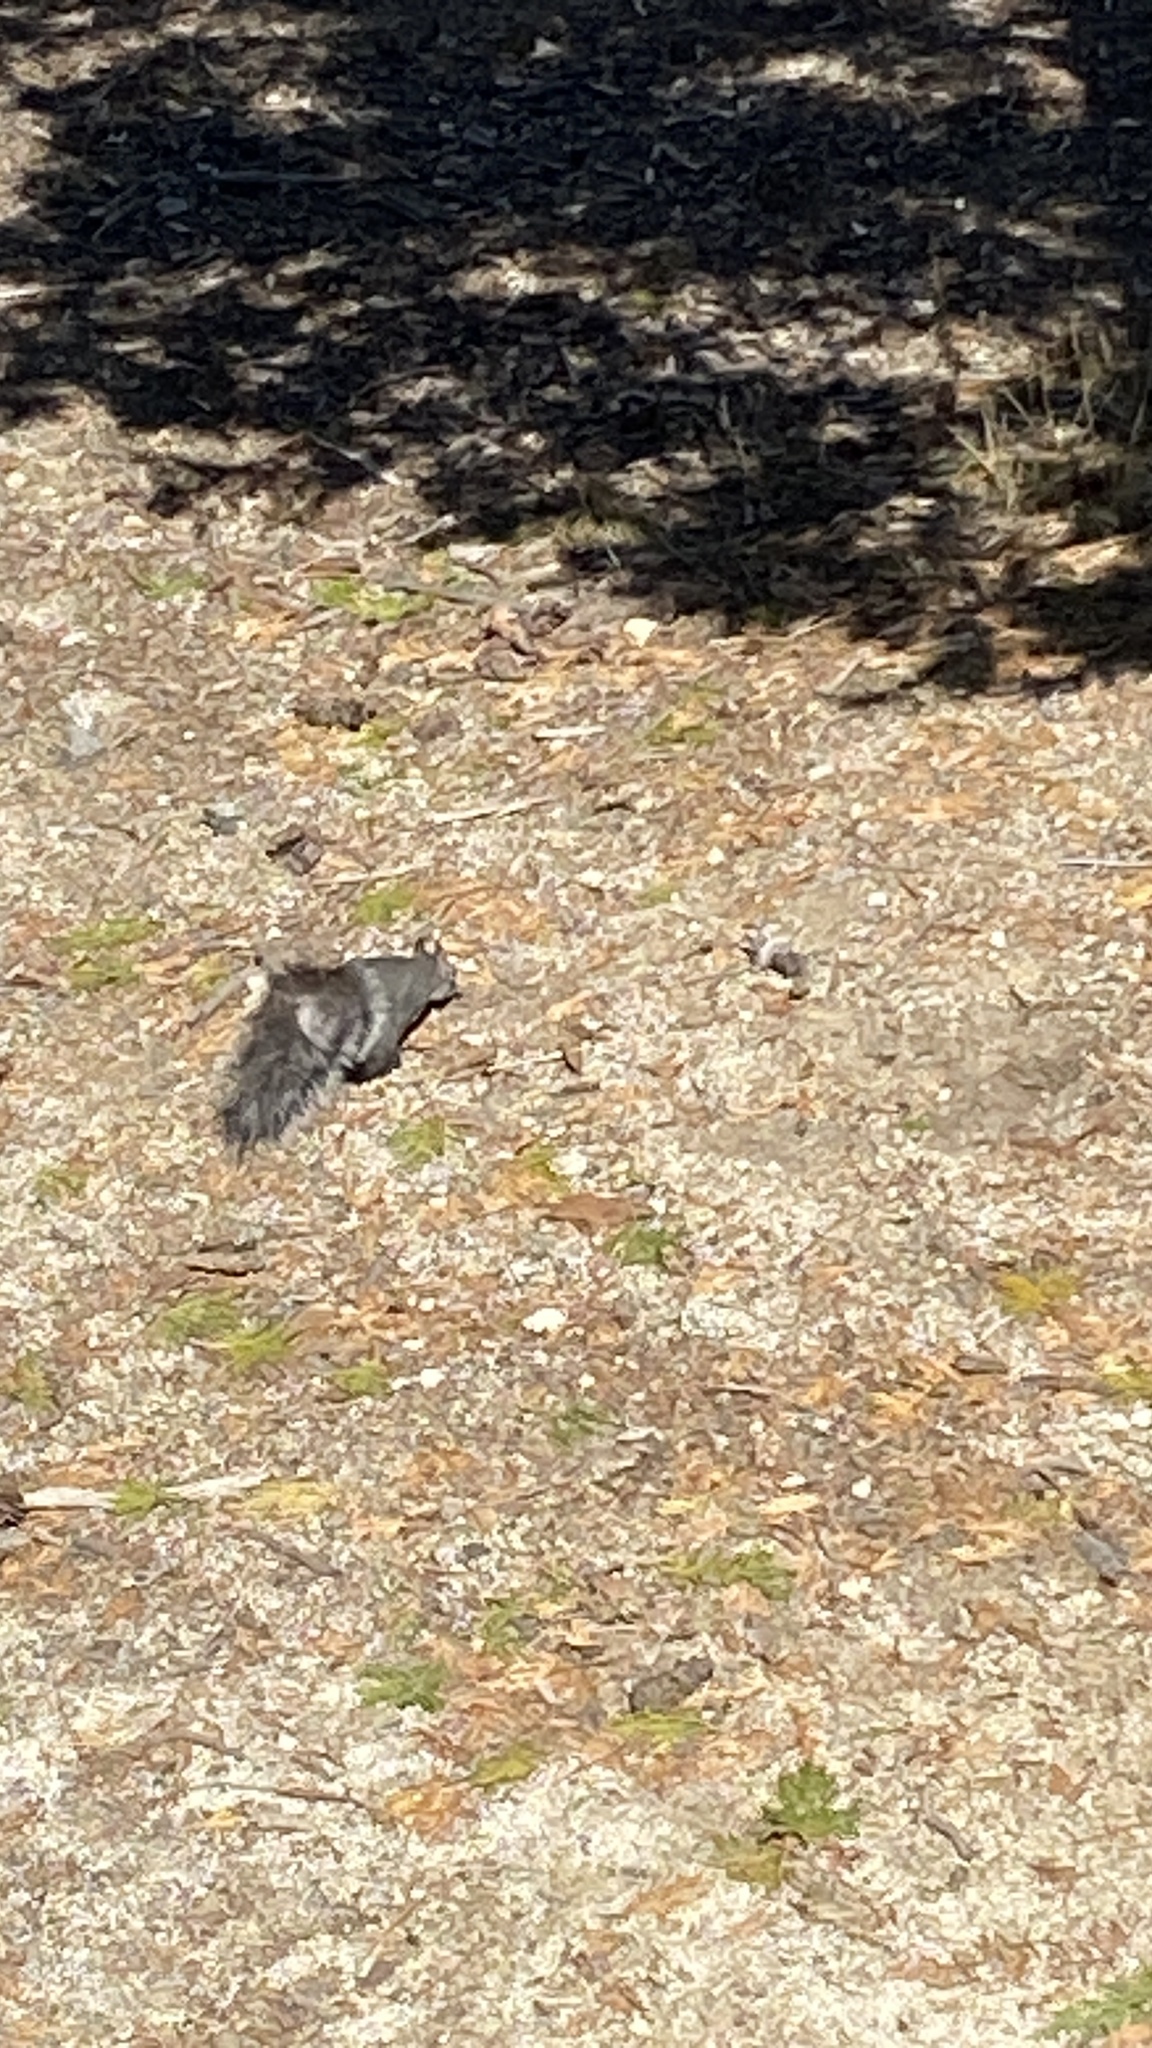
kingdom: Animalia
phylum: Chordata
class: Mammalia
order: Rodentia
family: Sciuridae
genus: Sciurus
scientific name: Sciurus griseus
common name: Western gray squirrel
